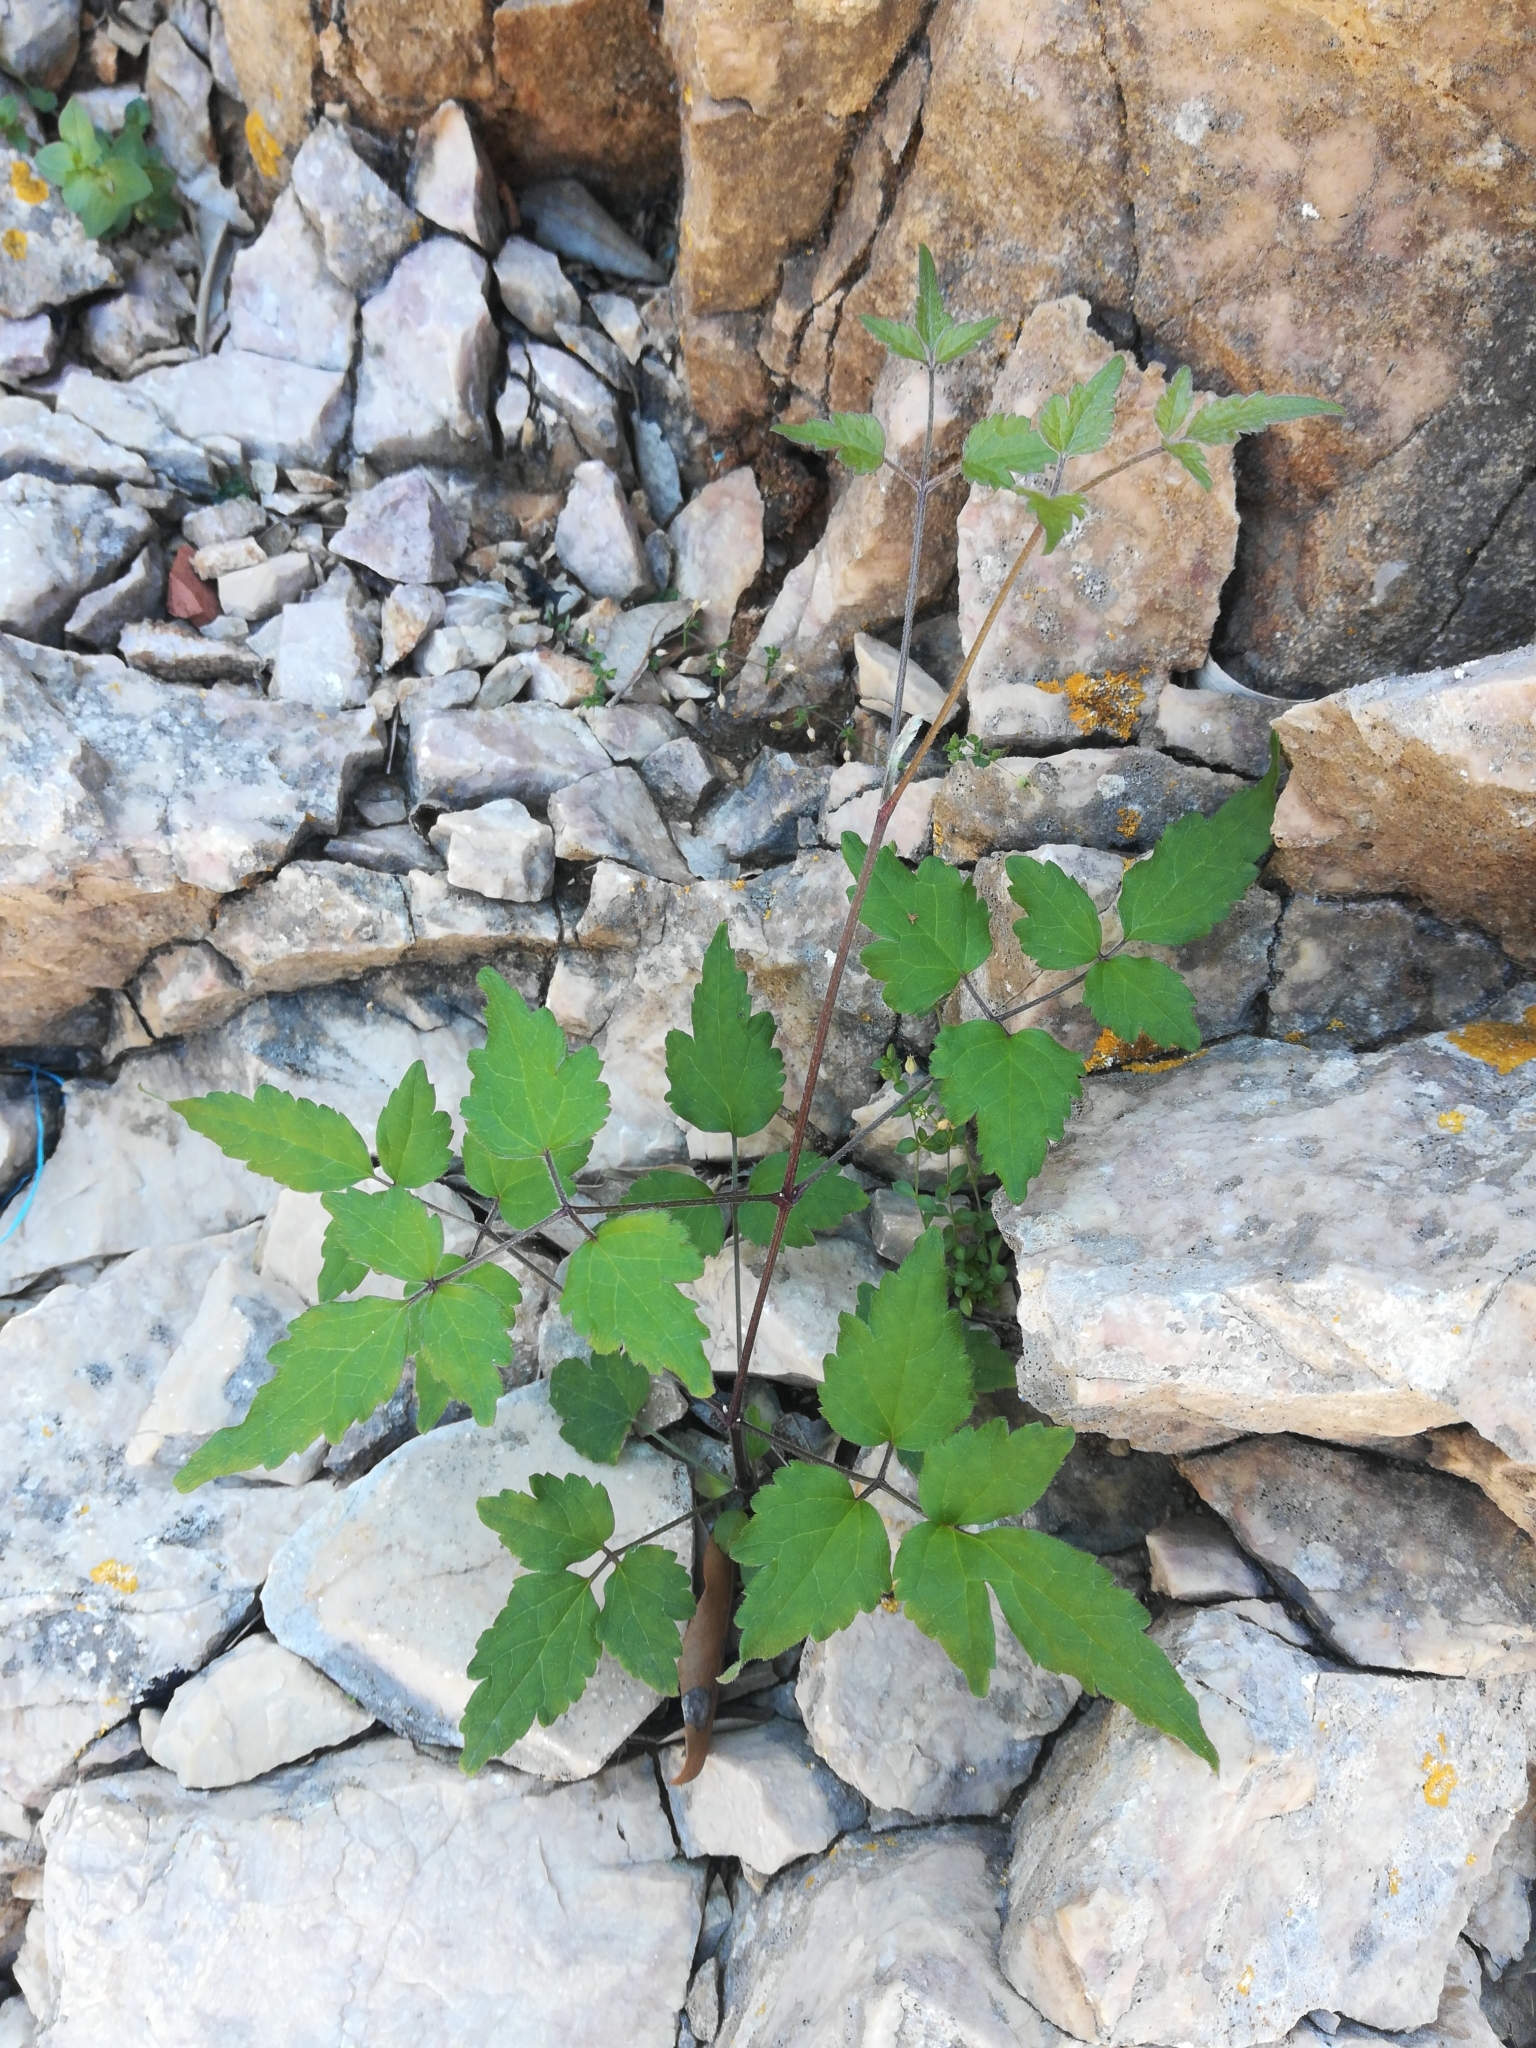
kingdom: Plantae
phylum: Tracheophyta
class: Magnoliopsida
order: Ranunculales
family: Ranunculaceae
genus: Clematis
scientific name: Clematis vitalba
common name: Evergreen clematis
